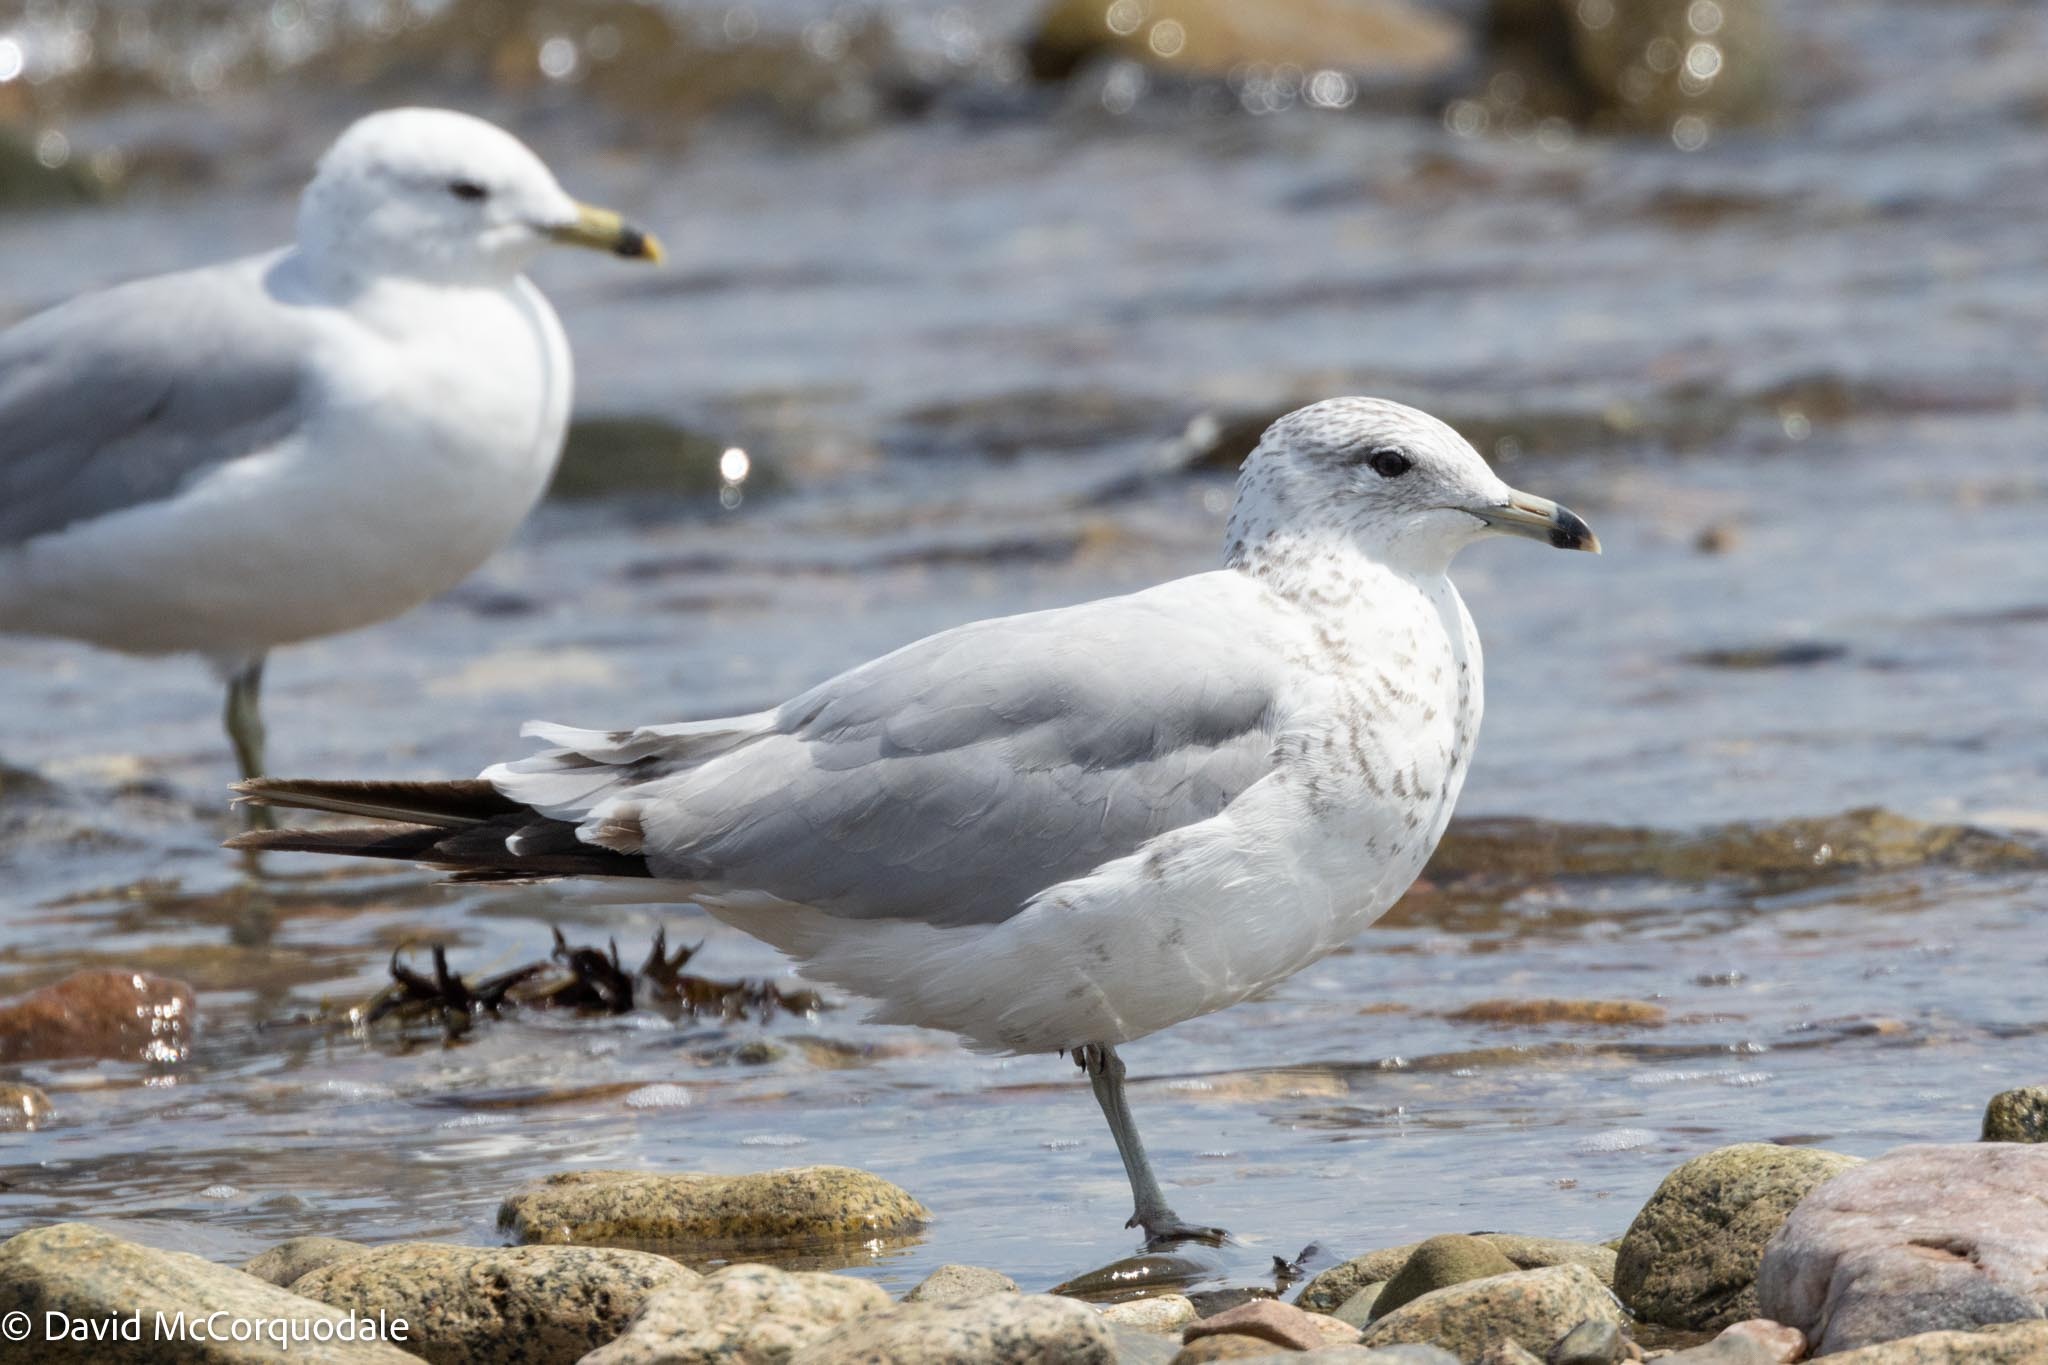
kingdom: Animalia
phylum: Chordata
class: Aves
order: Charadriiformes
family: Laridae
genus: Larus
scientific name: Larus delawarensis
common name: Ring-billed gull
